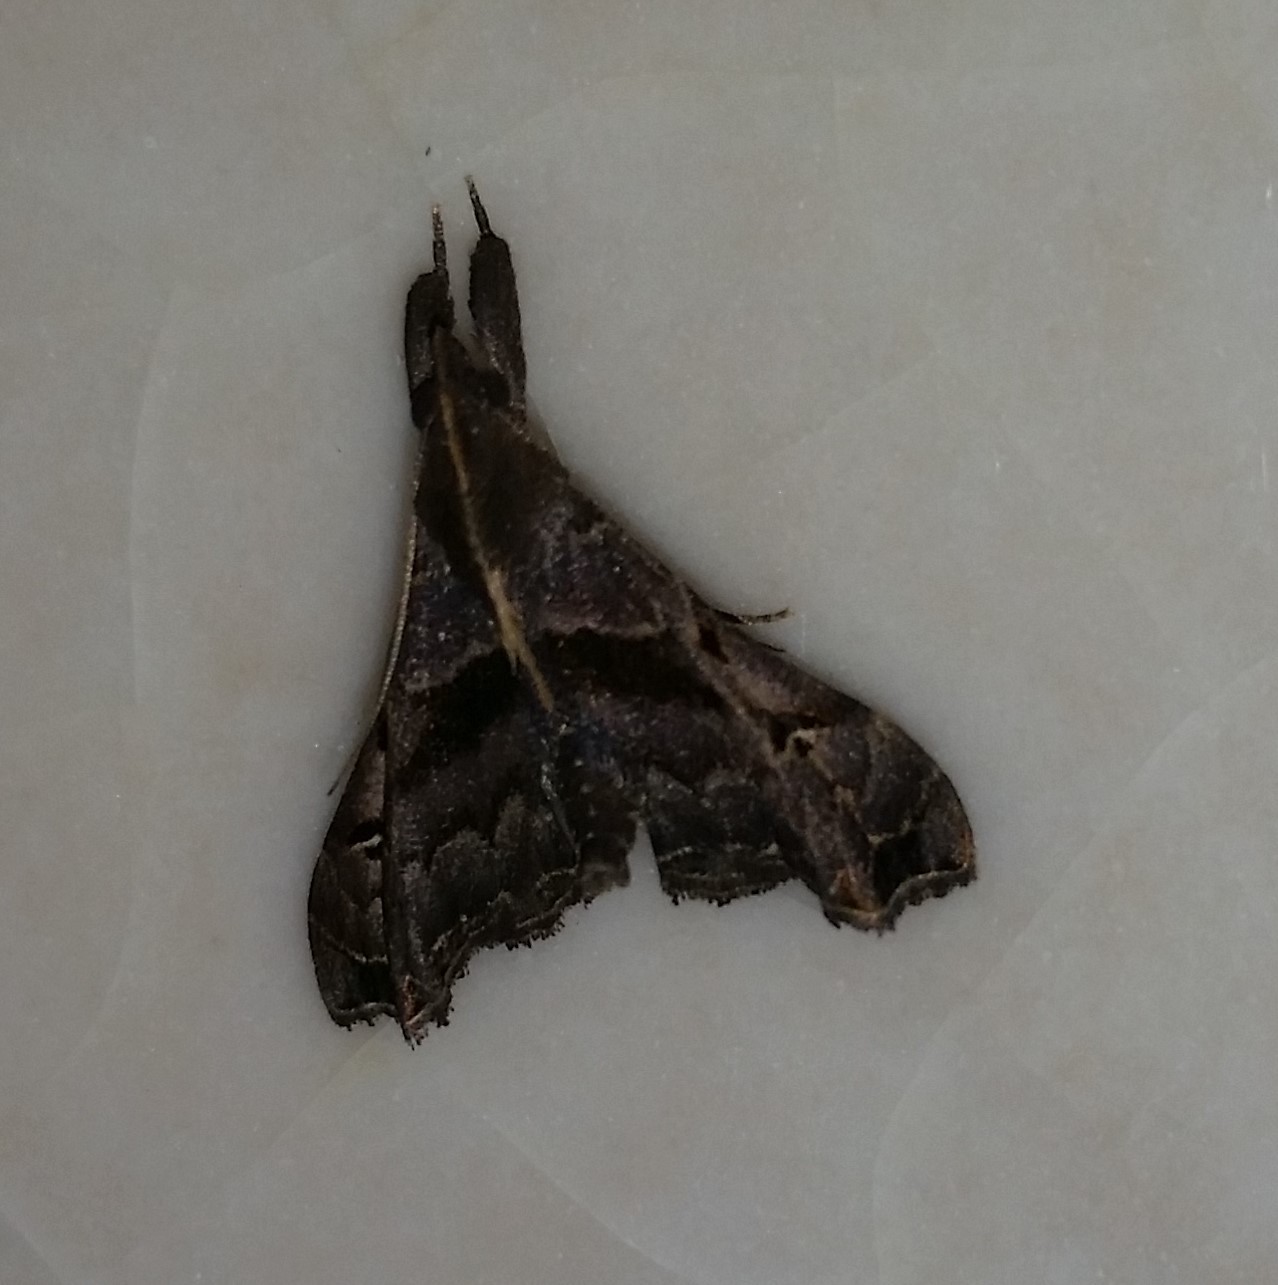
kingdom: Animalia
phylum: Arthropoda
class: Insecta
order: Lepidoptera
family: Erebidae
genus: Palthis
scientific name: Palthis asopialis
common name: Faint-spotted palthis moth
